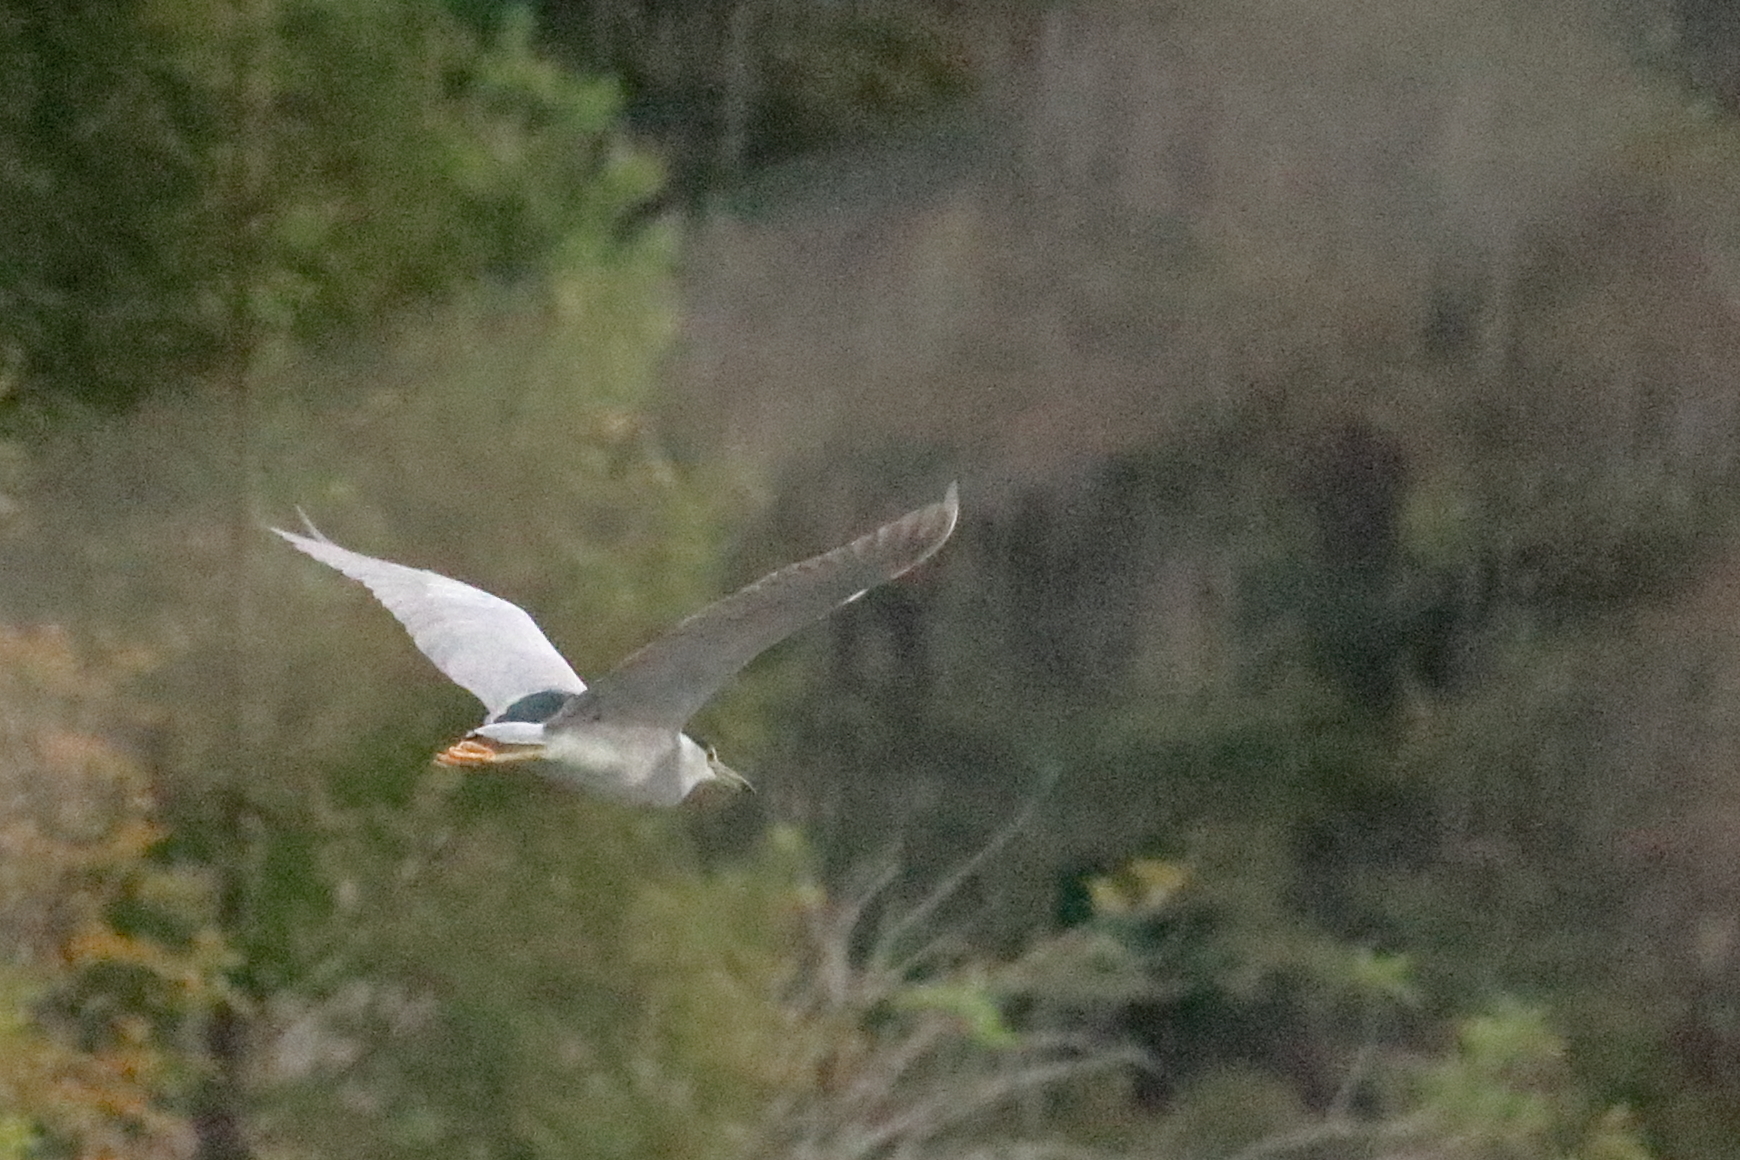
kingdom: Animalia
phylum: Chordata
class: Aves
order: Pelecaniformes
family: Ardeidae
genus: Nycticorax
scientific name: Nycticorax nycticorax
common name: Black-crowned night heron
